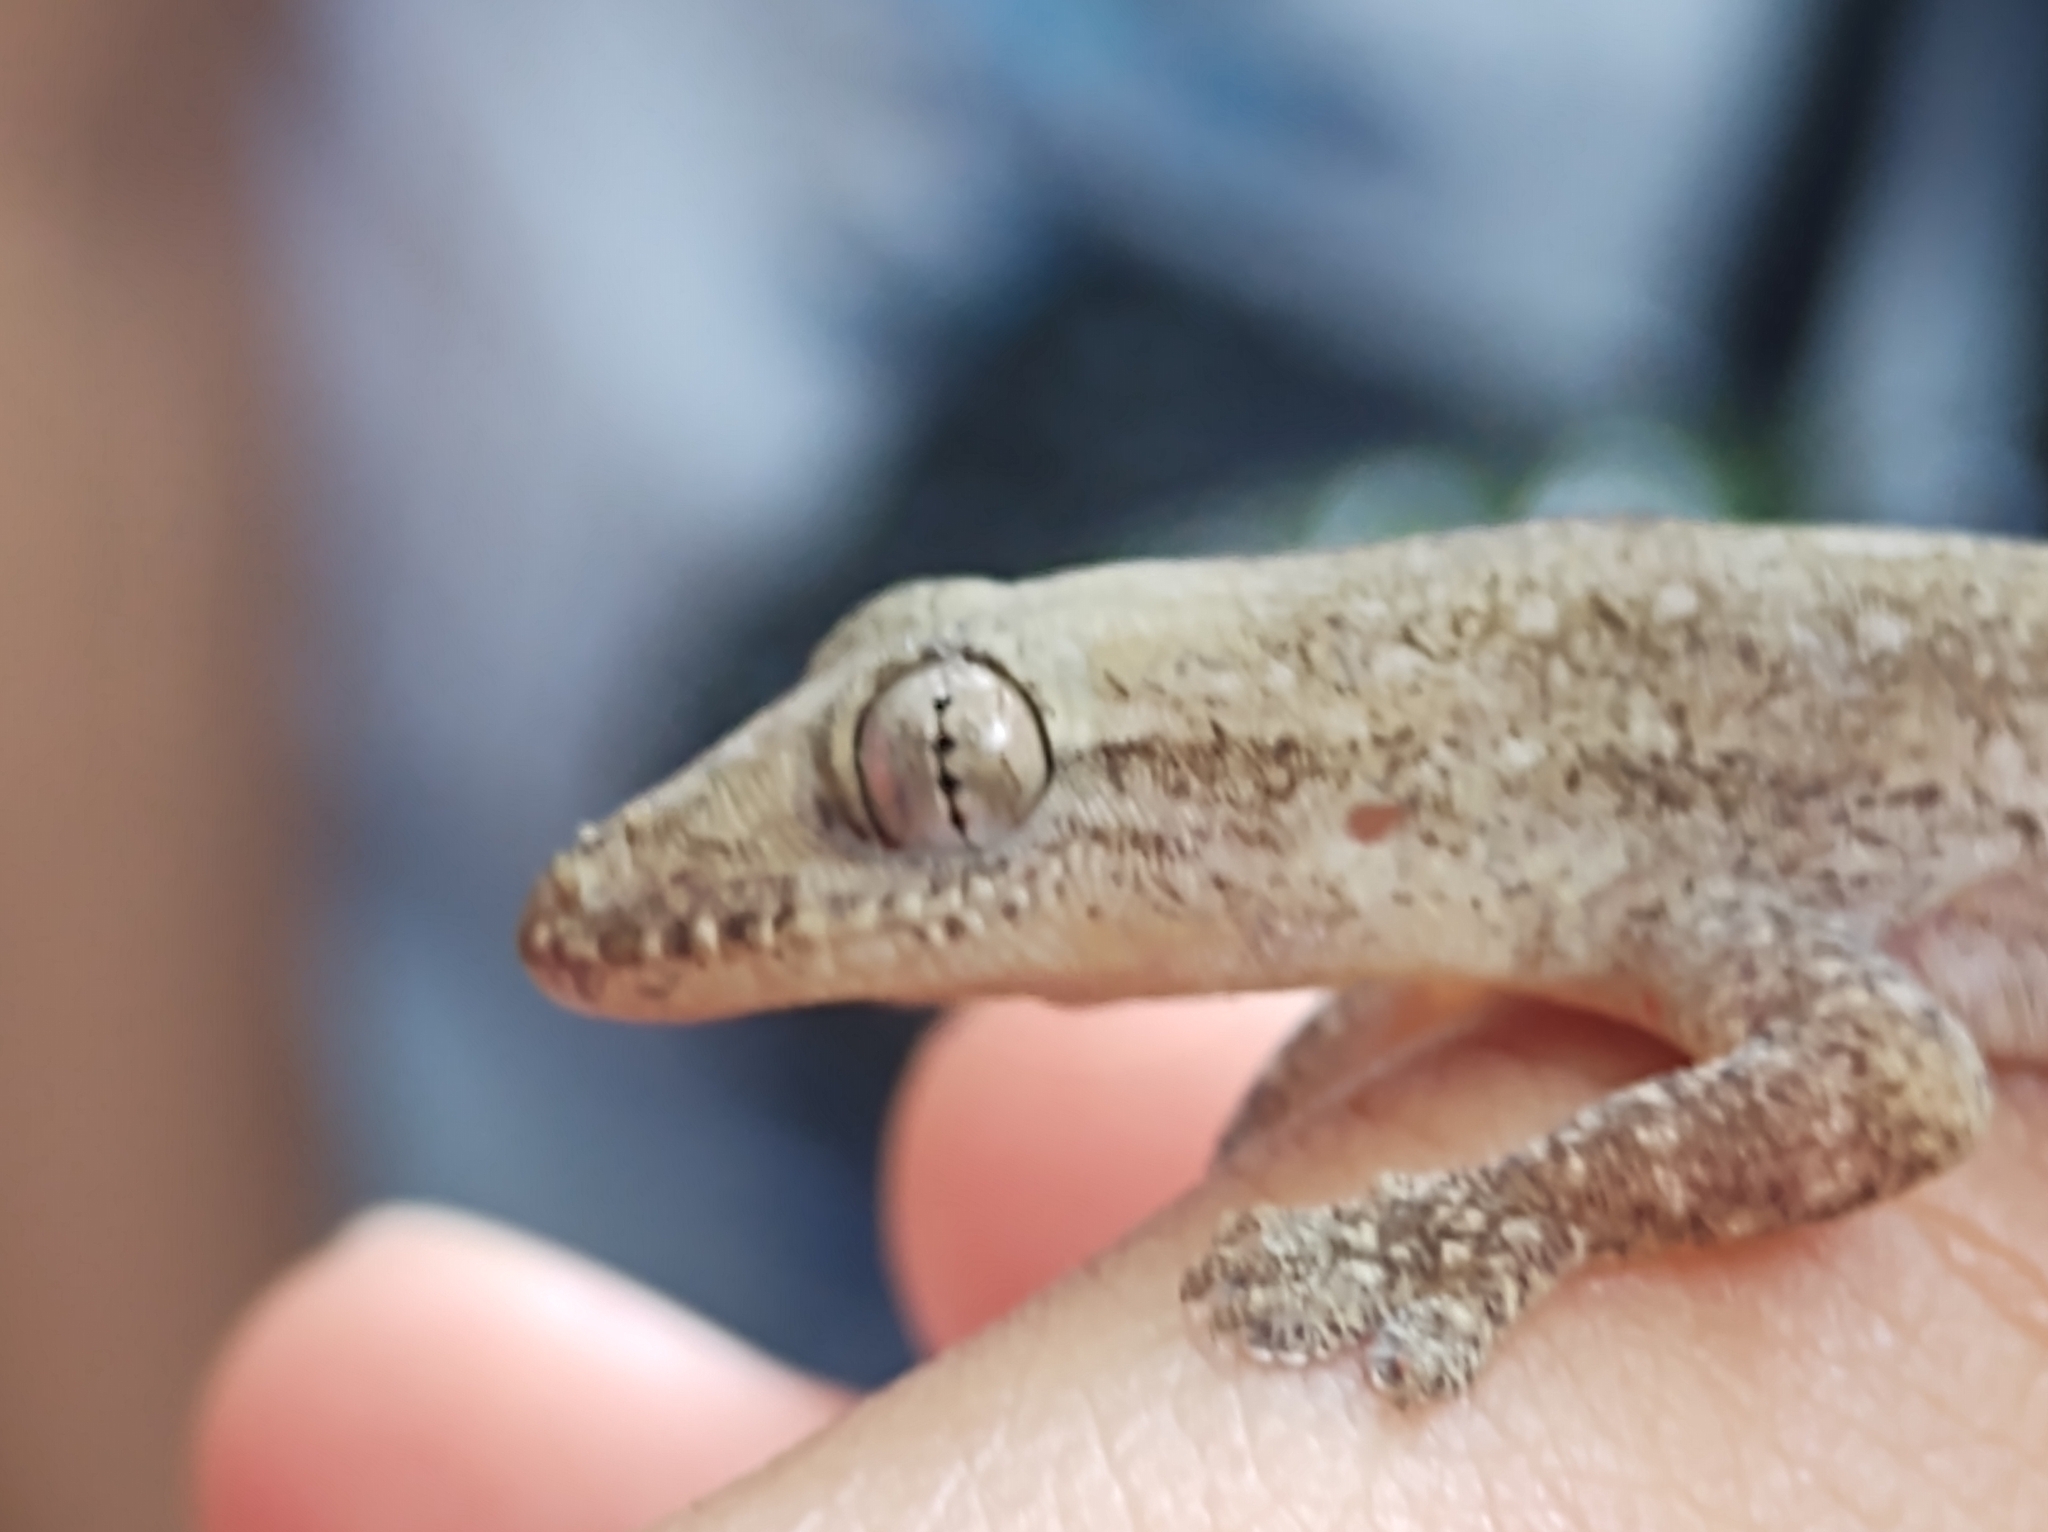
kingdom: Animalia
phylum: Chordata
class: Squamata
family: Gekkonidae
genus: Hemidactylus
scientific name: Hemidactylus frenatus
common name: Common house gecko
